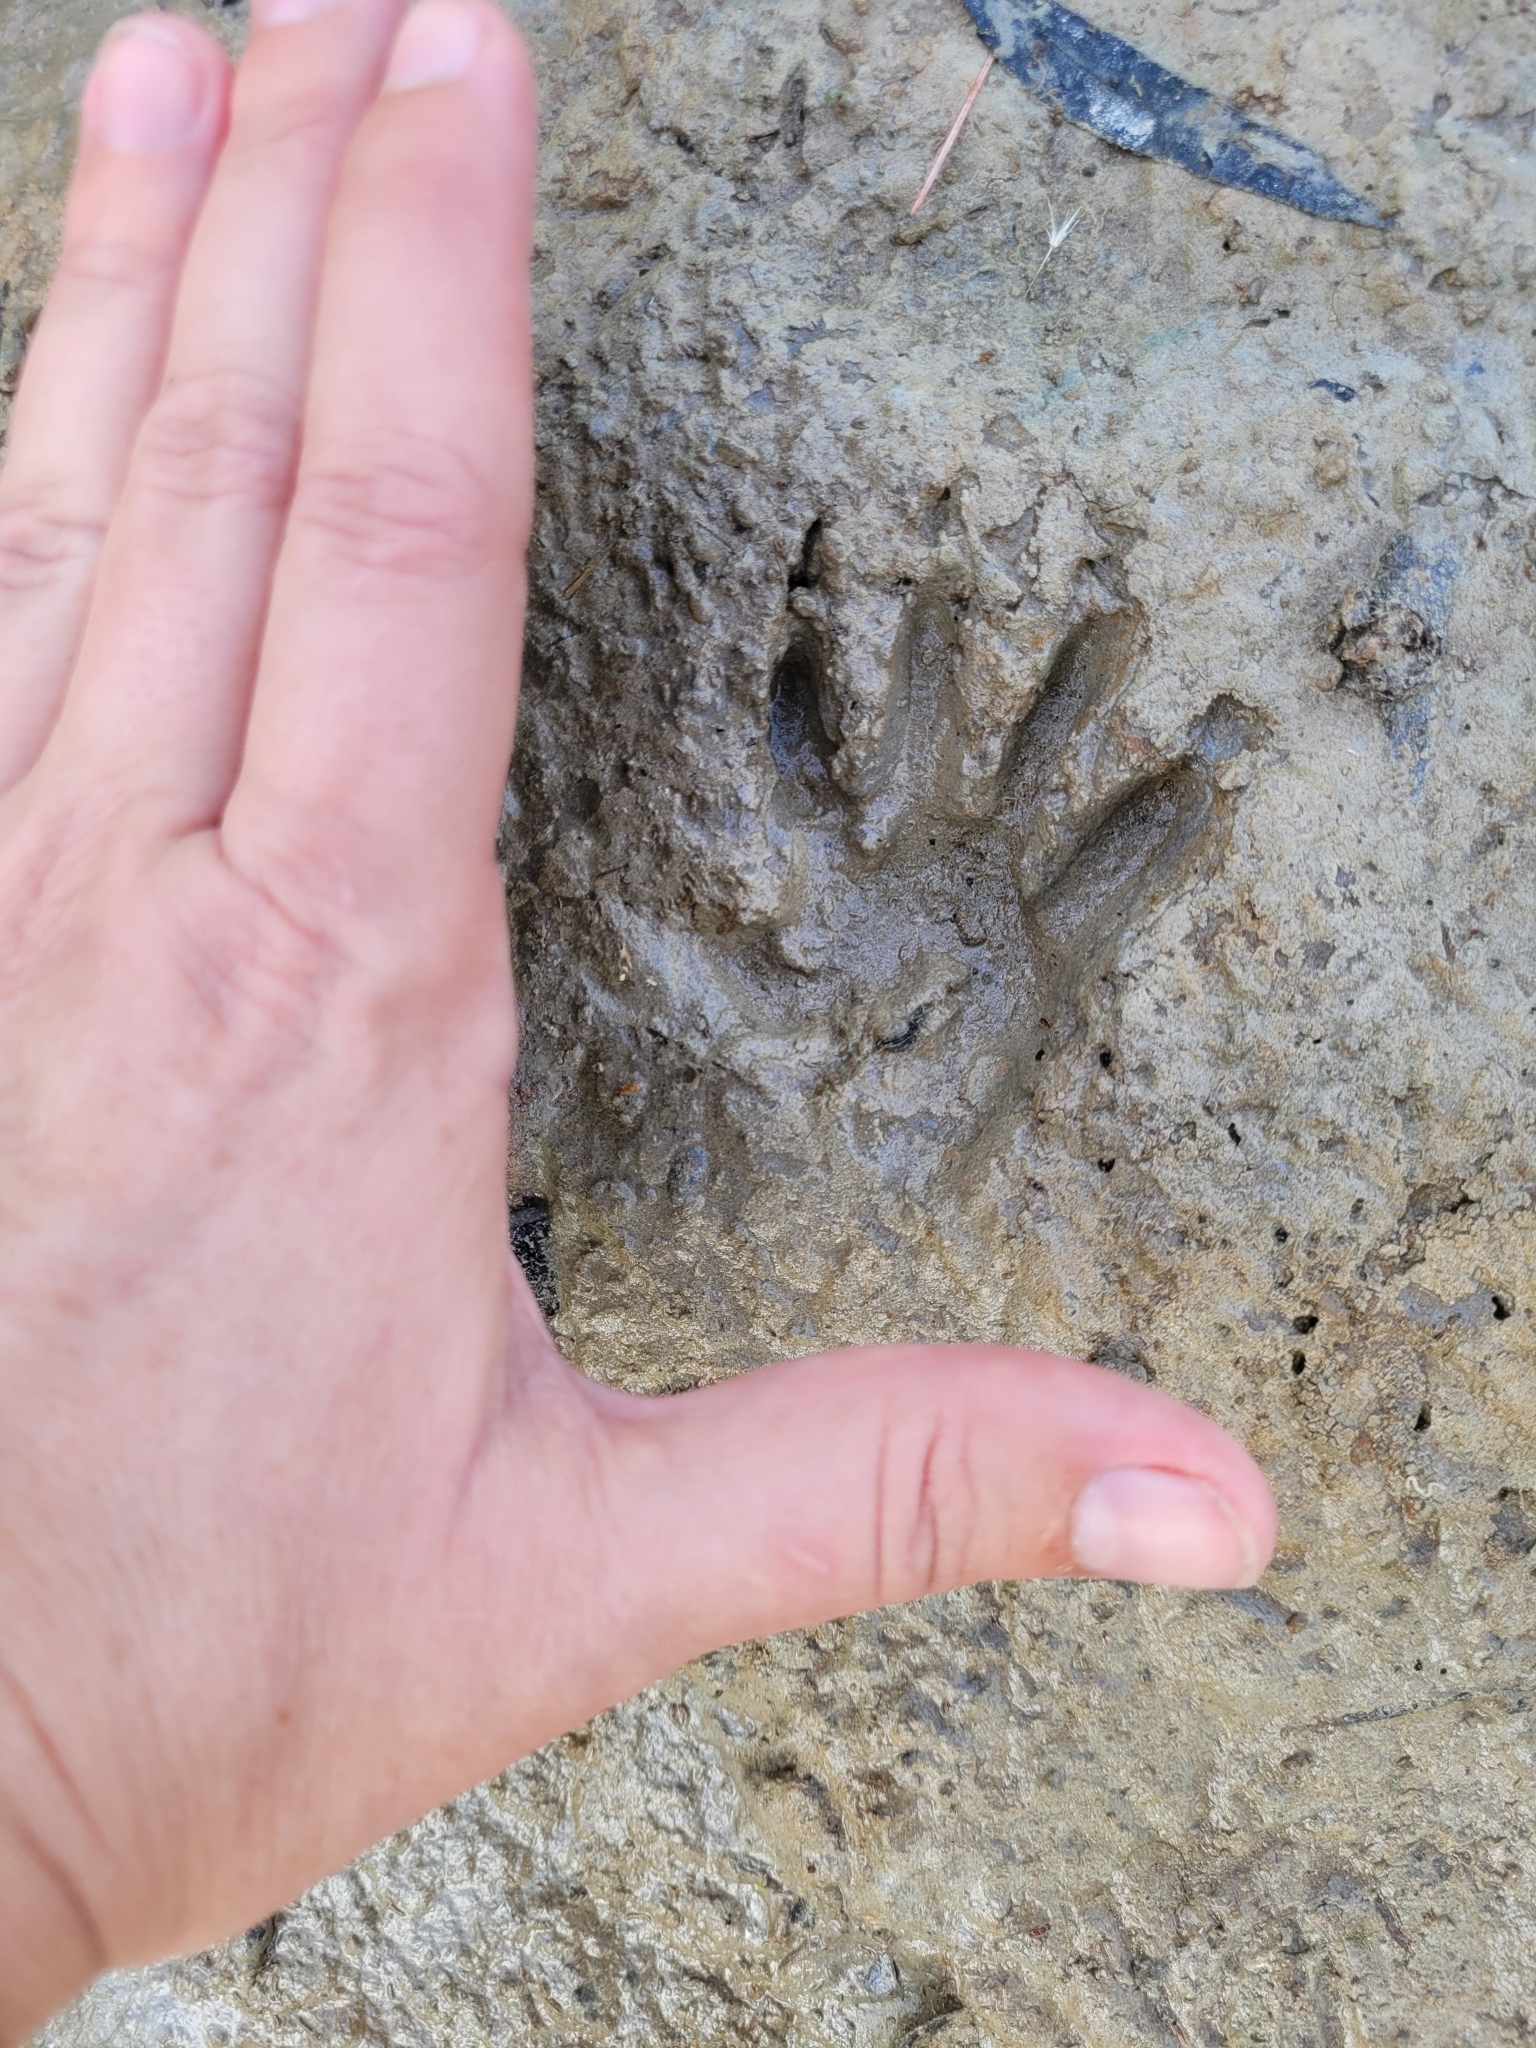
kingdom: Animalia
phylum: Chordata
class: Mammalia
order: Carnivora
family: Procyonidae
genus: Procyon
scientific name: Procyon lotor
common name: Raccoon
